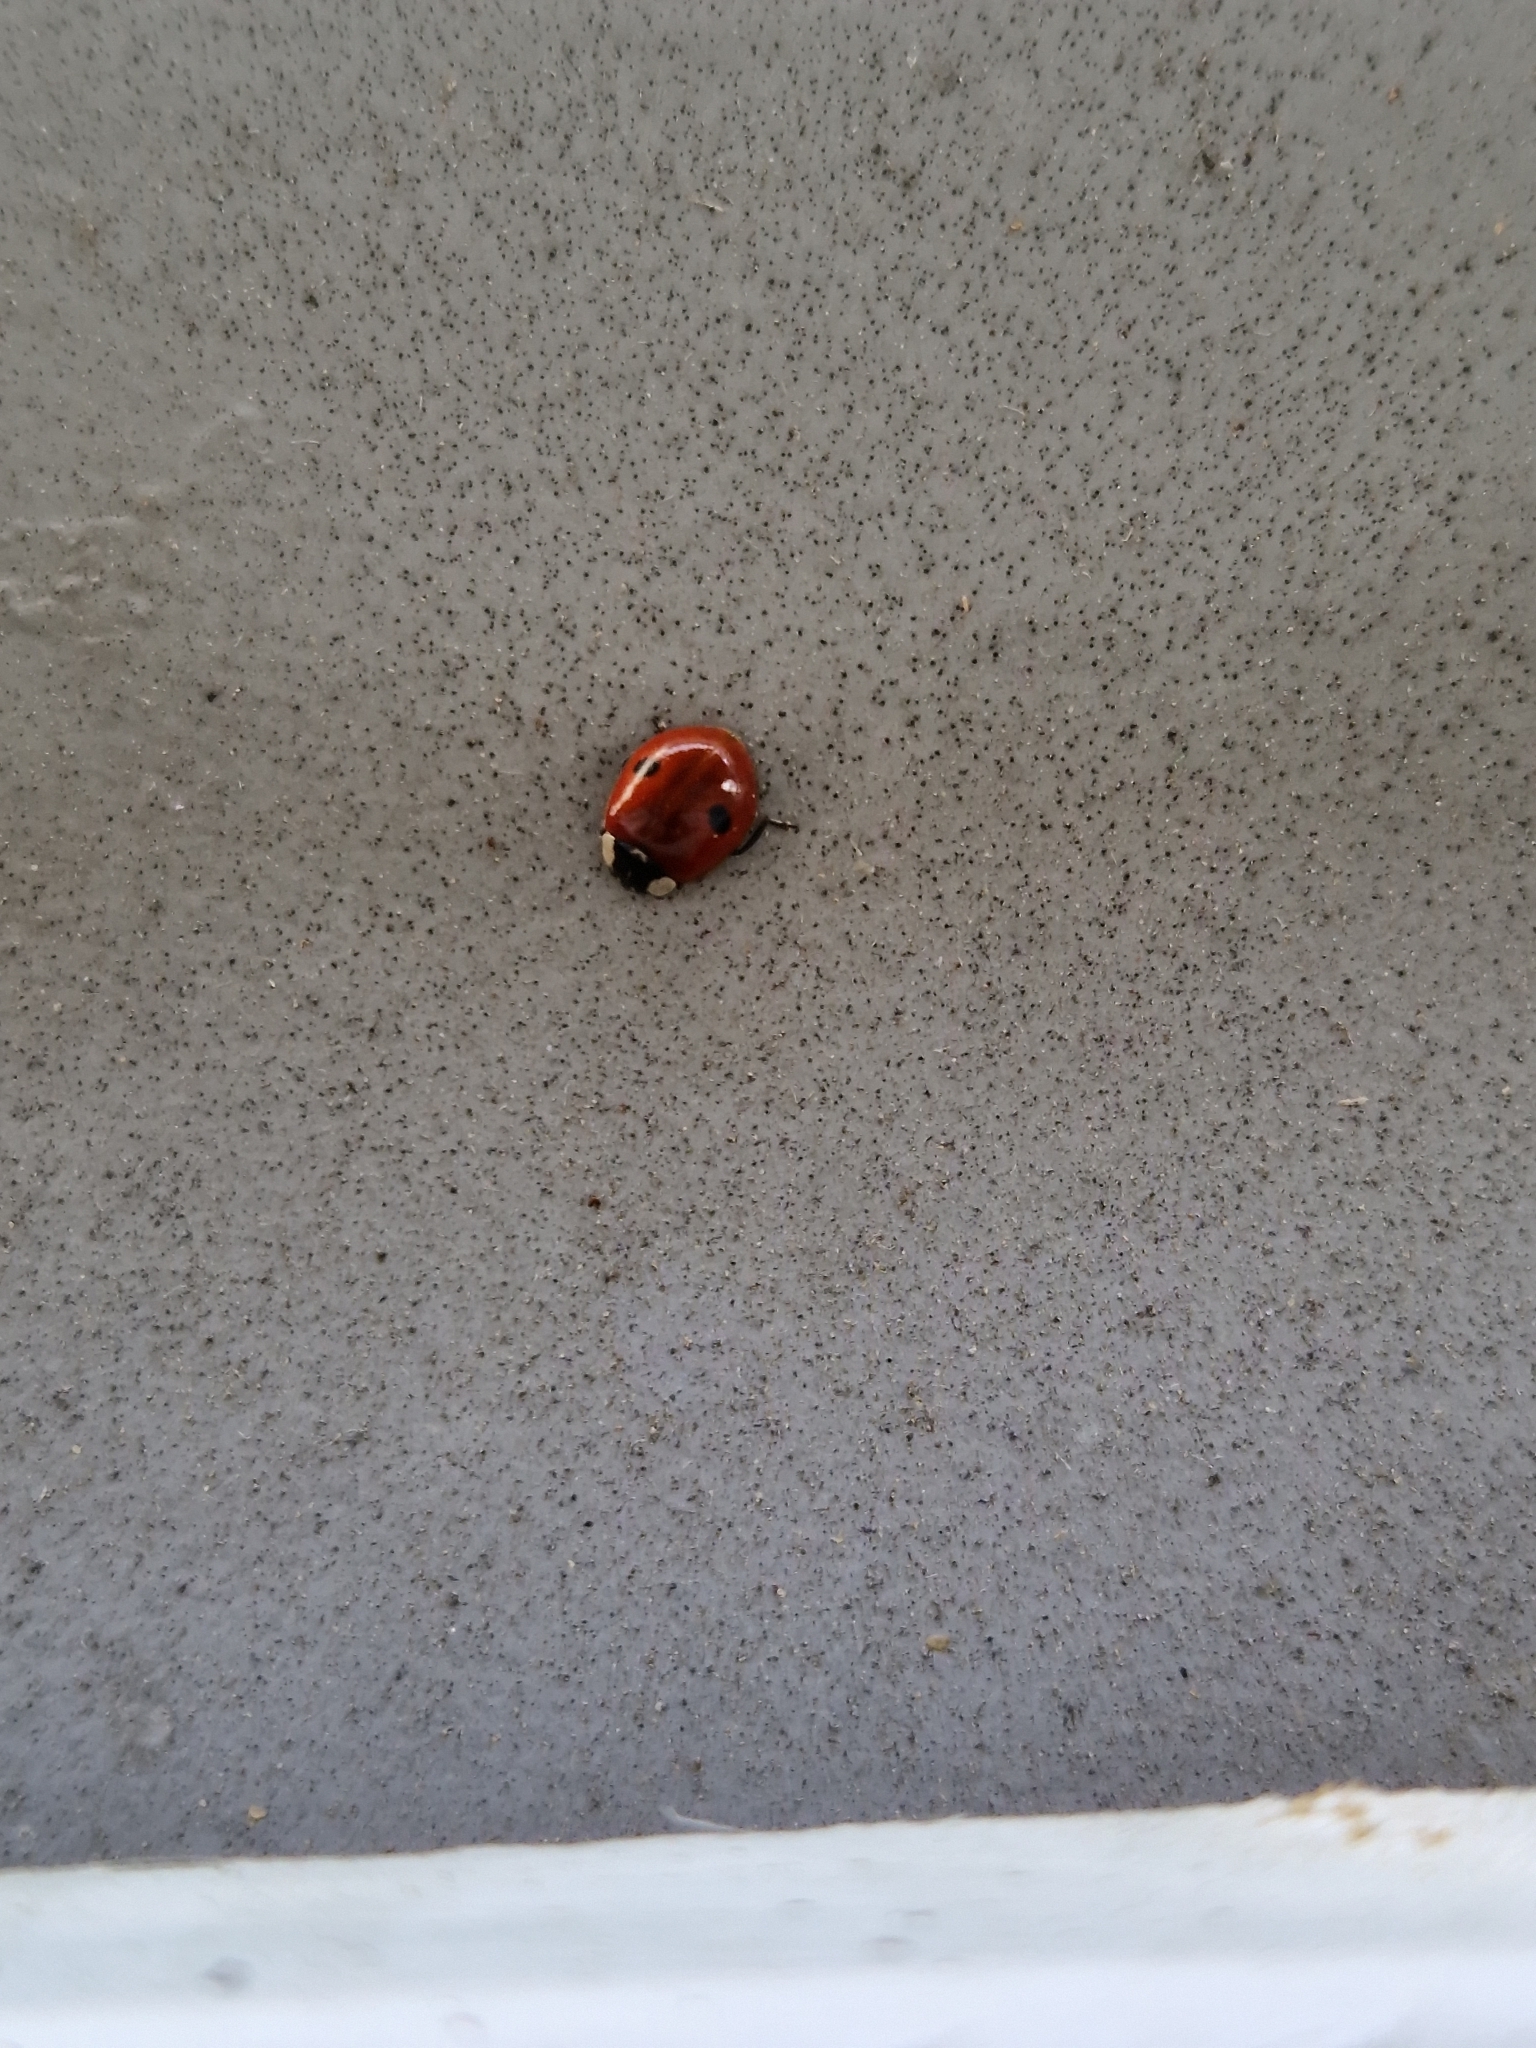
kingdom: Animalia
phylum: Arthropoda
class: Insecta
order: Coleoptera
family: Coccinellidae
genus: Adalia
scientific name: Adalia bipunctata
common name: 2-spot ladybird
